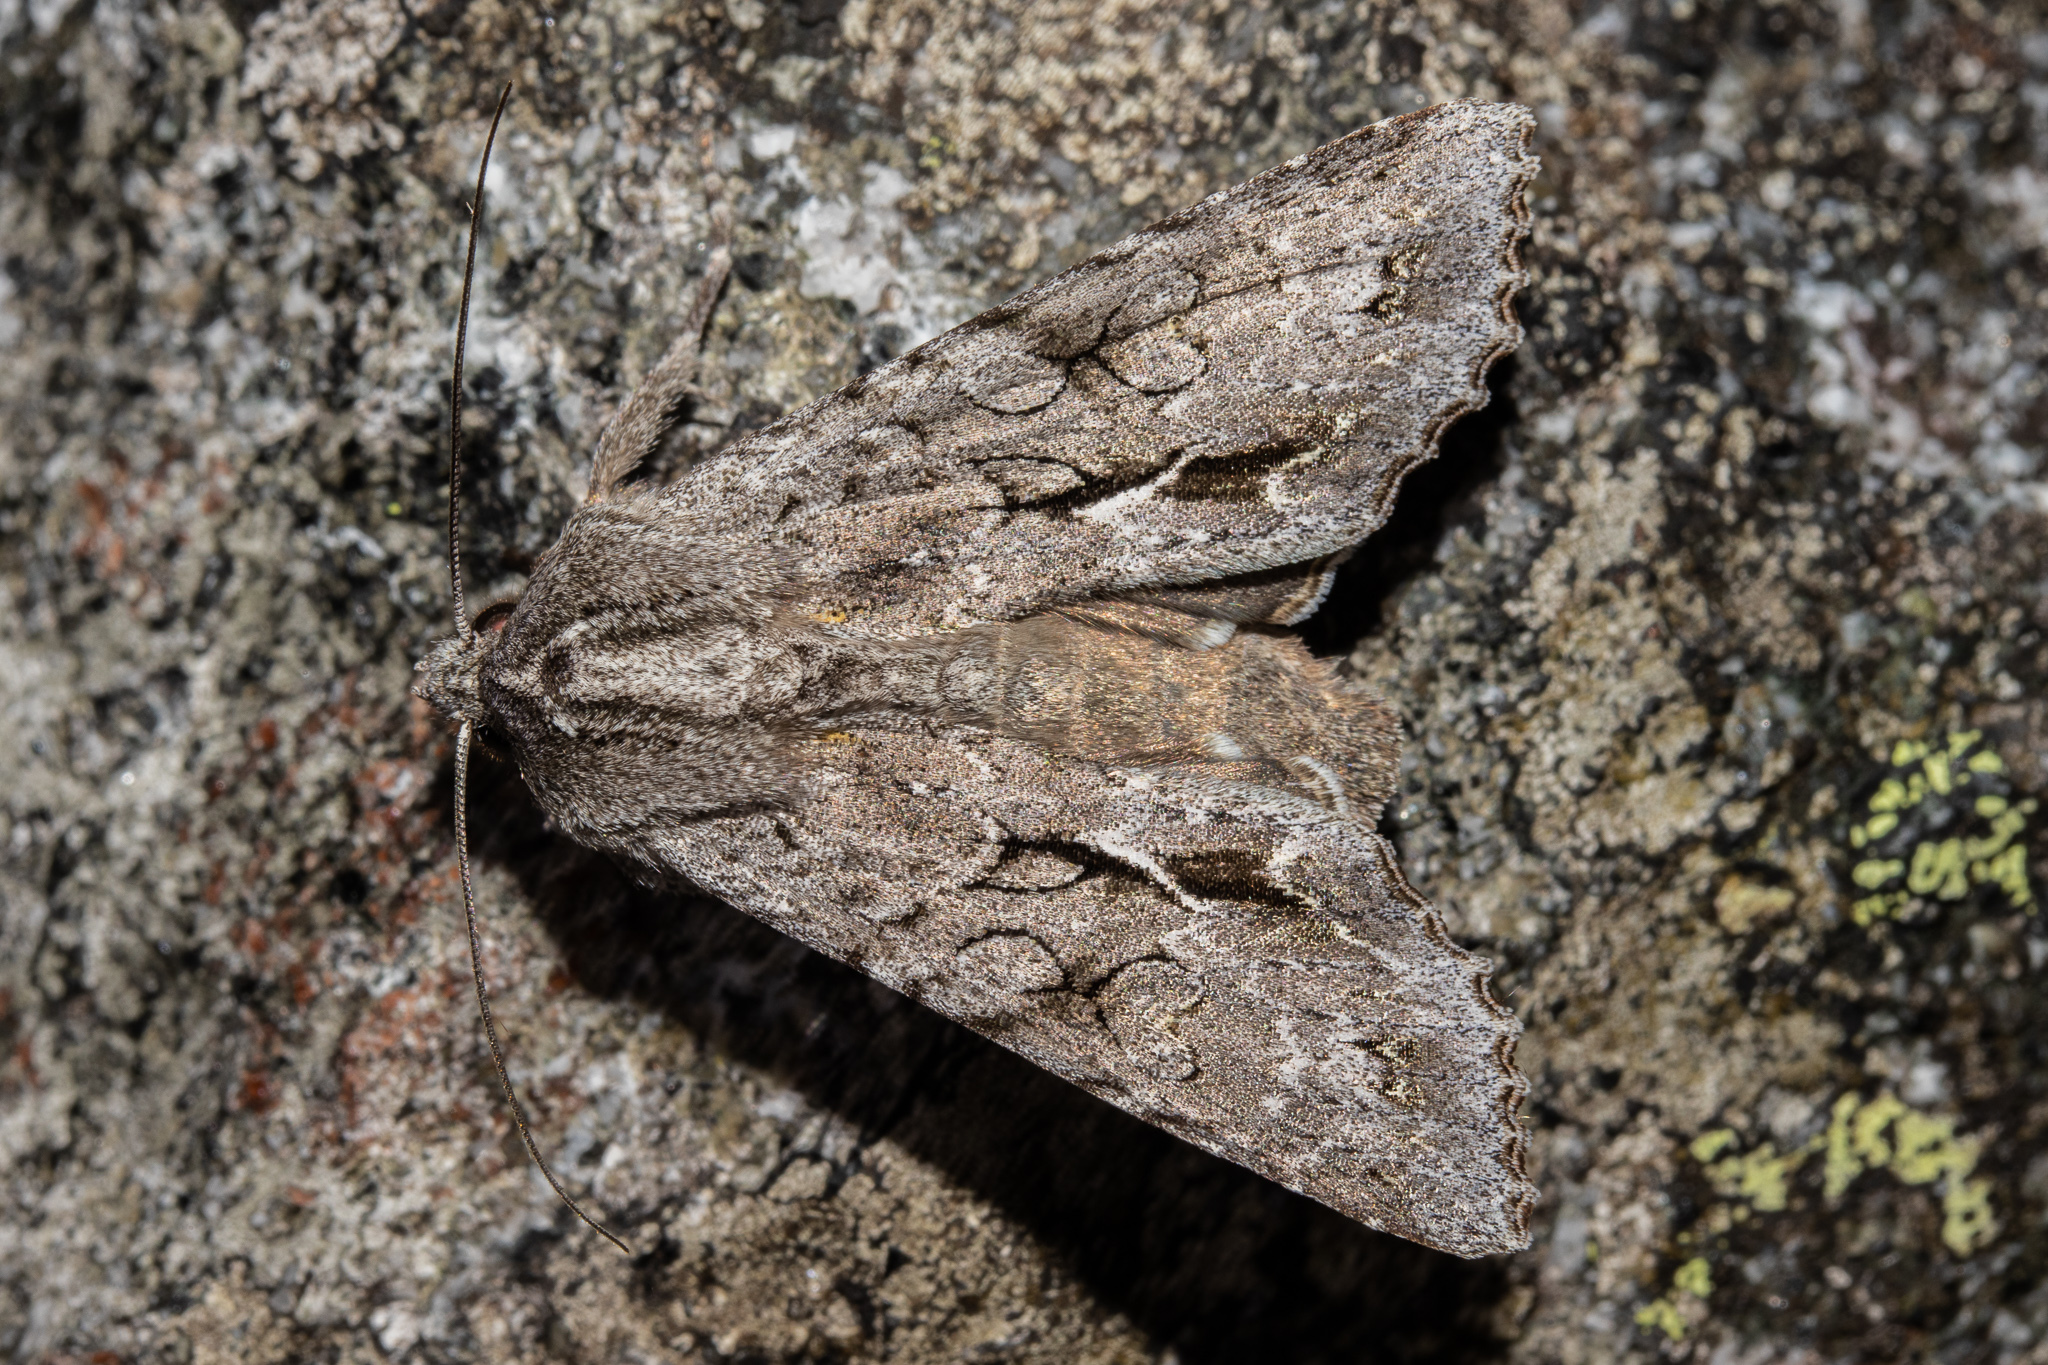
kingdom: Animalia
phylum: Arthropoda
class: Insecta
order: Lepidoptera
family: Noctuidae
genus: Ichneutica
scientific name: Ichneutica
